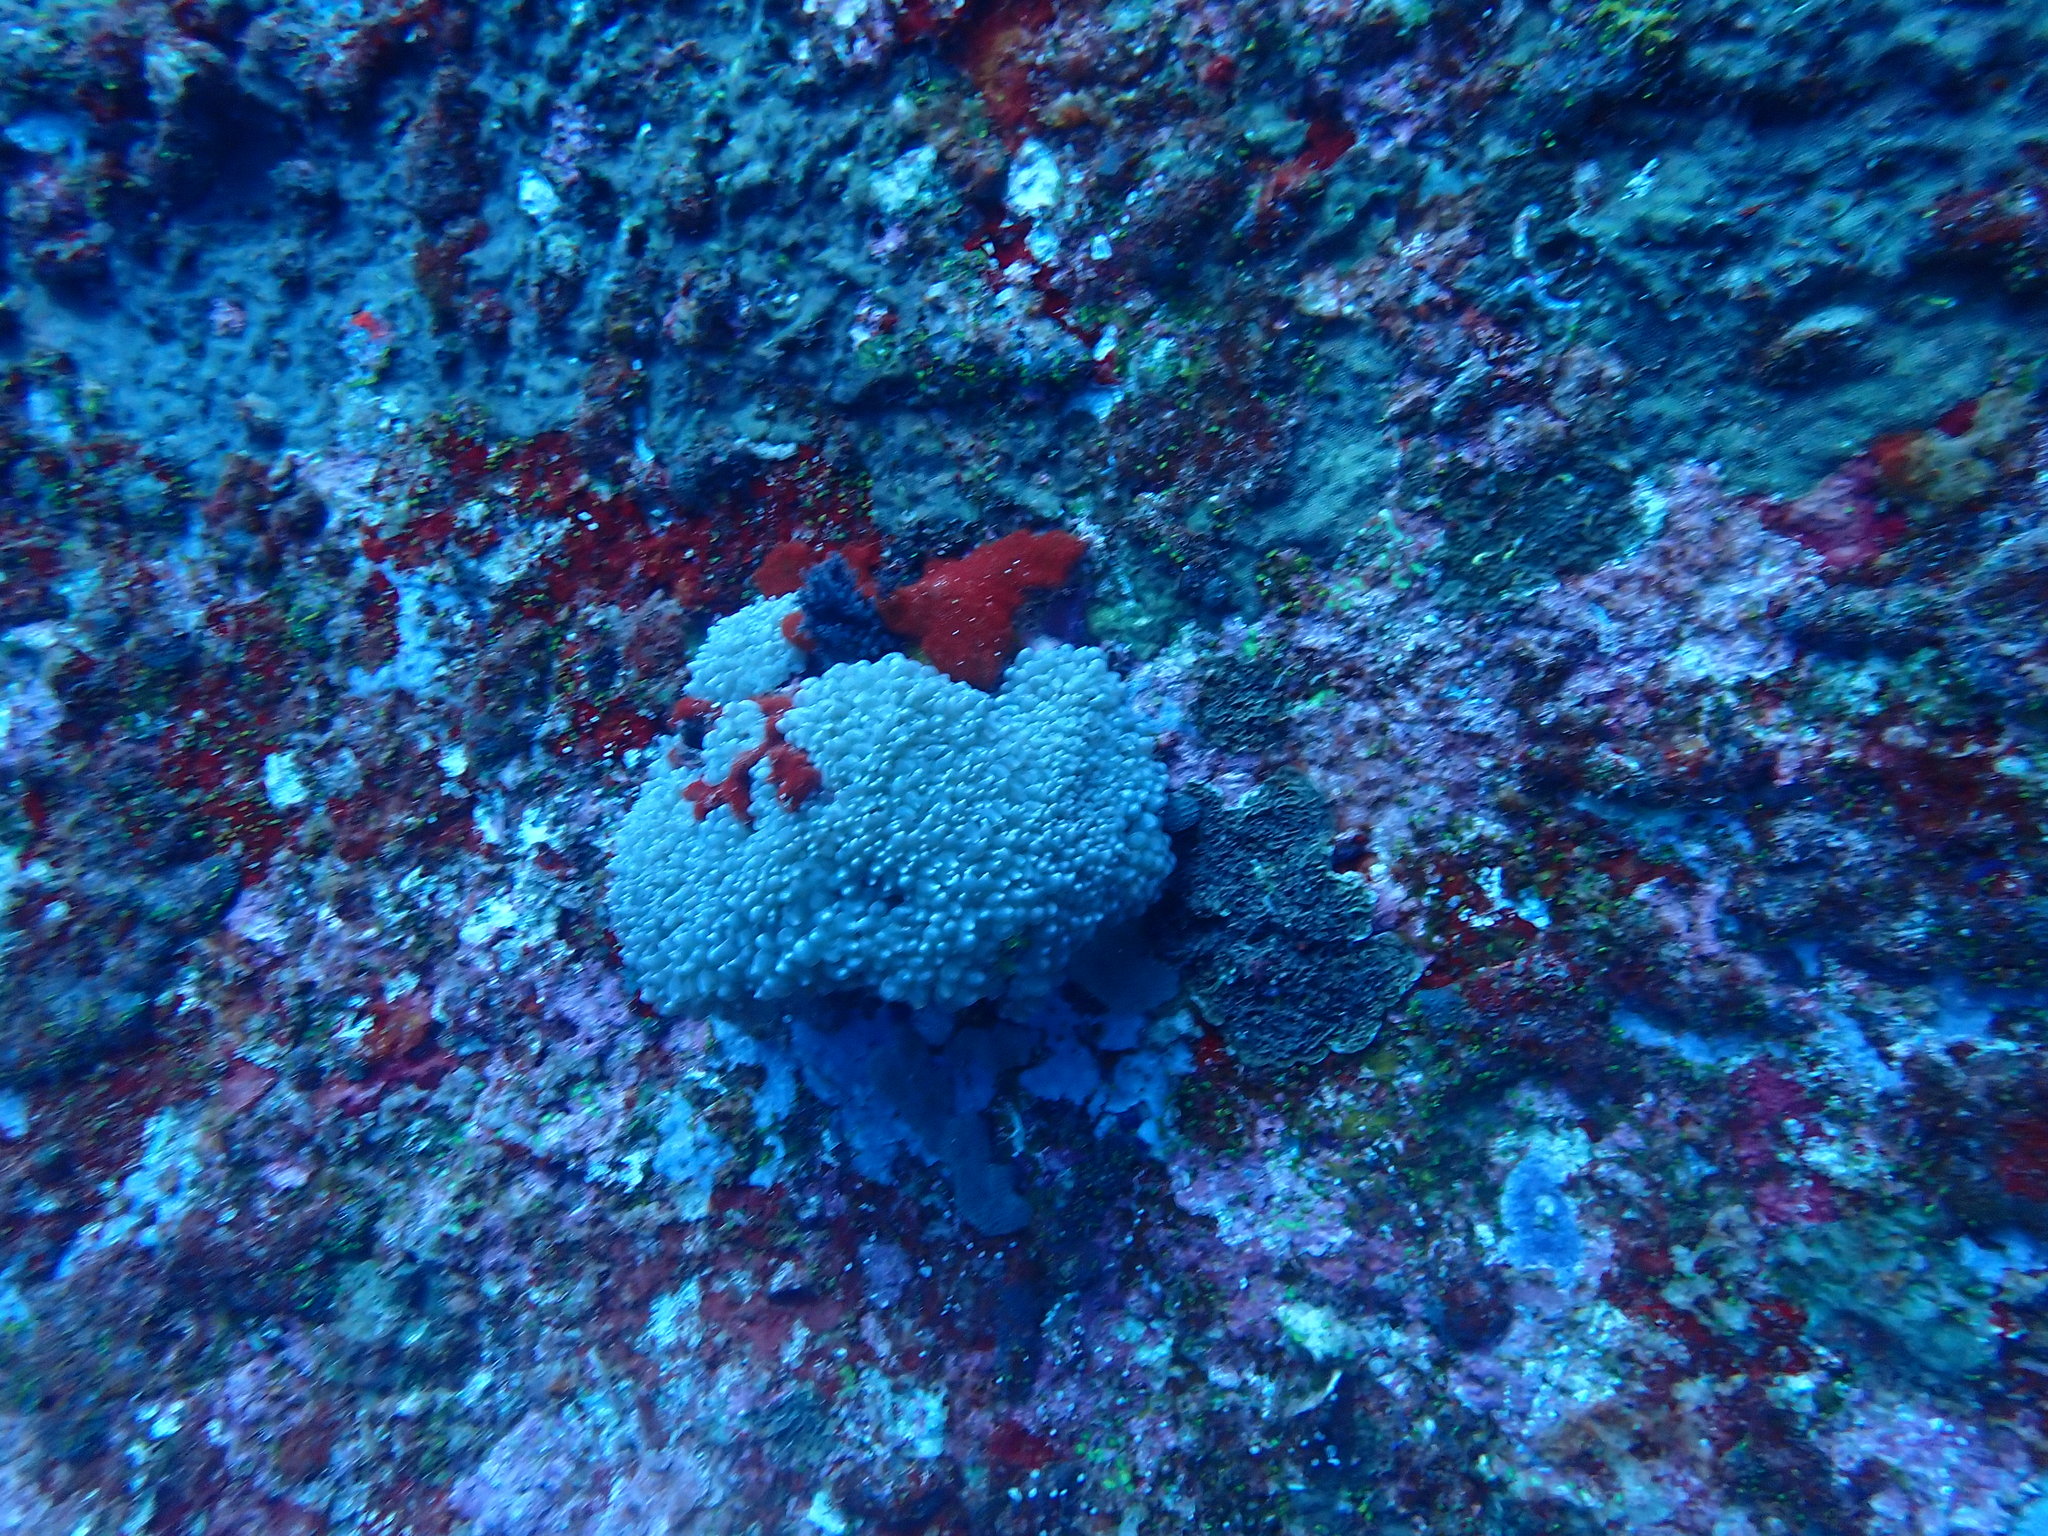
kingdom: Animalia
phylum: Cnidaria
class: Anthozoa
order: Scleractinia
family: Plerogyridae
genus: Physogyra
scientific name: Physogyra lichtensteini
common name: Tipped bubblegum coral
